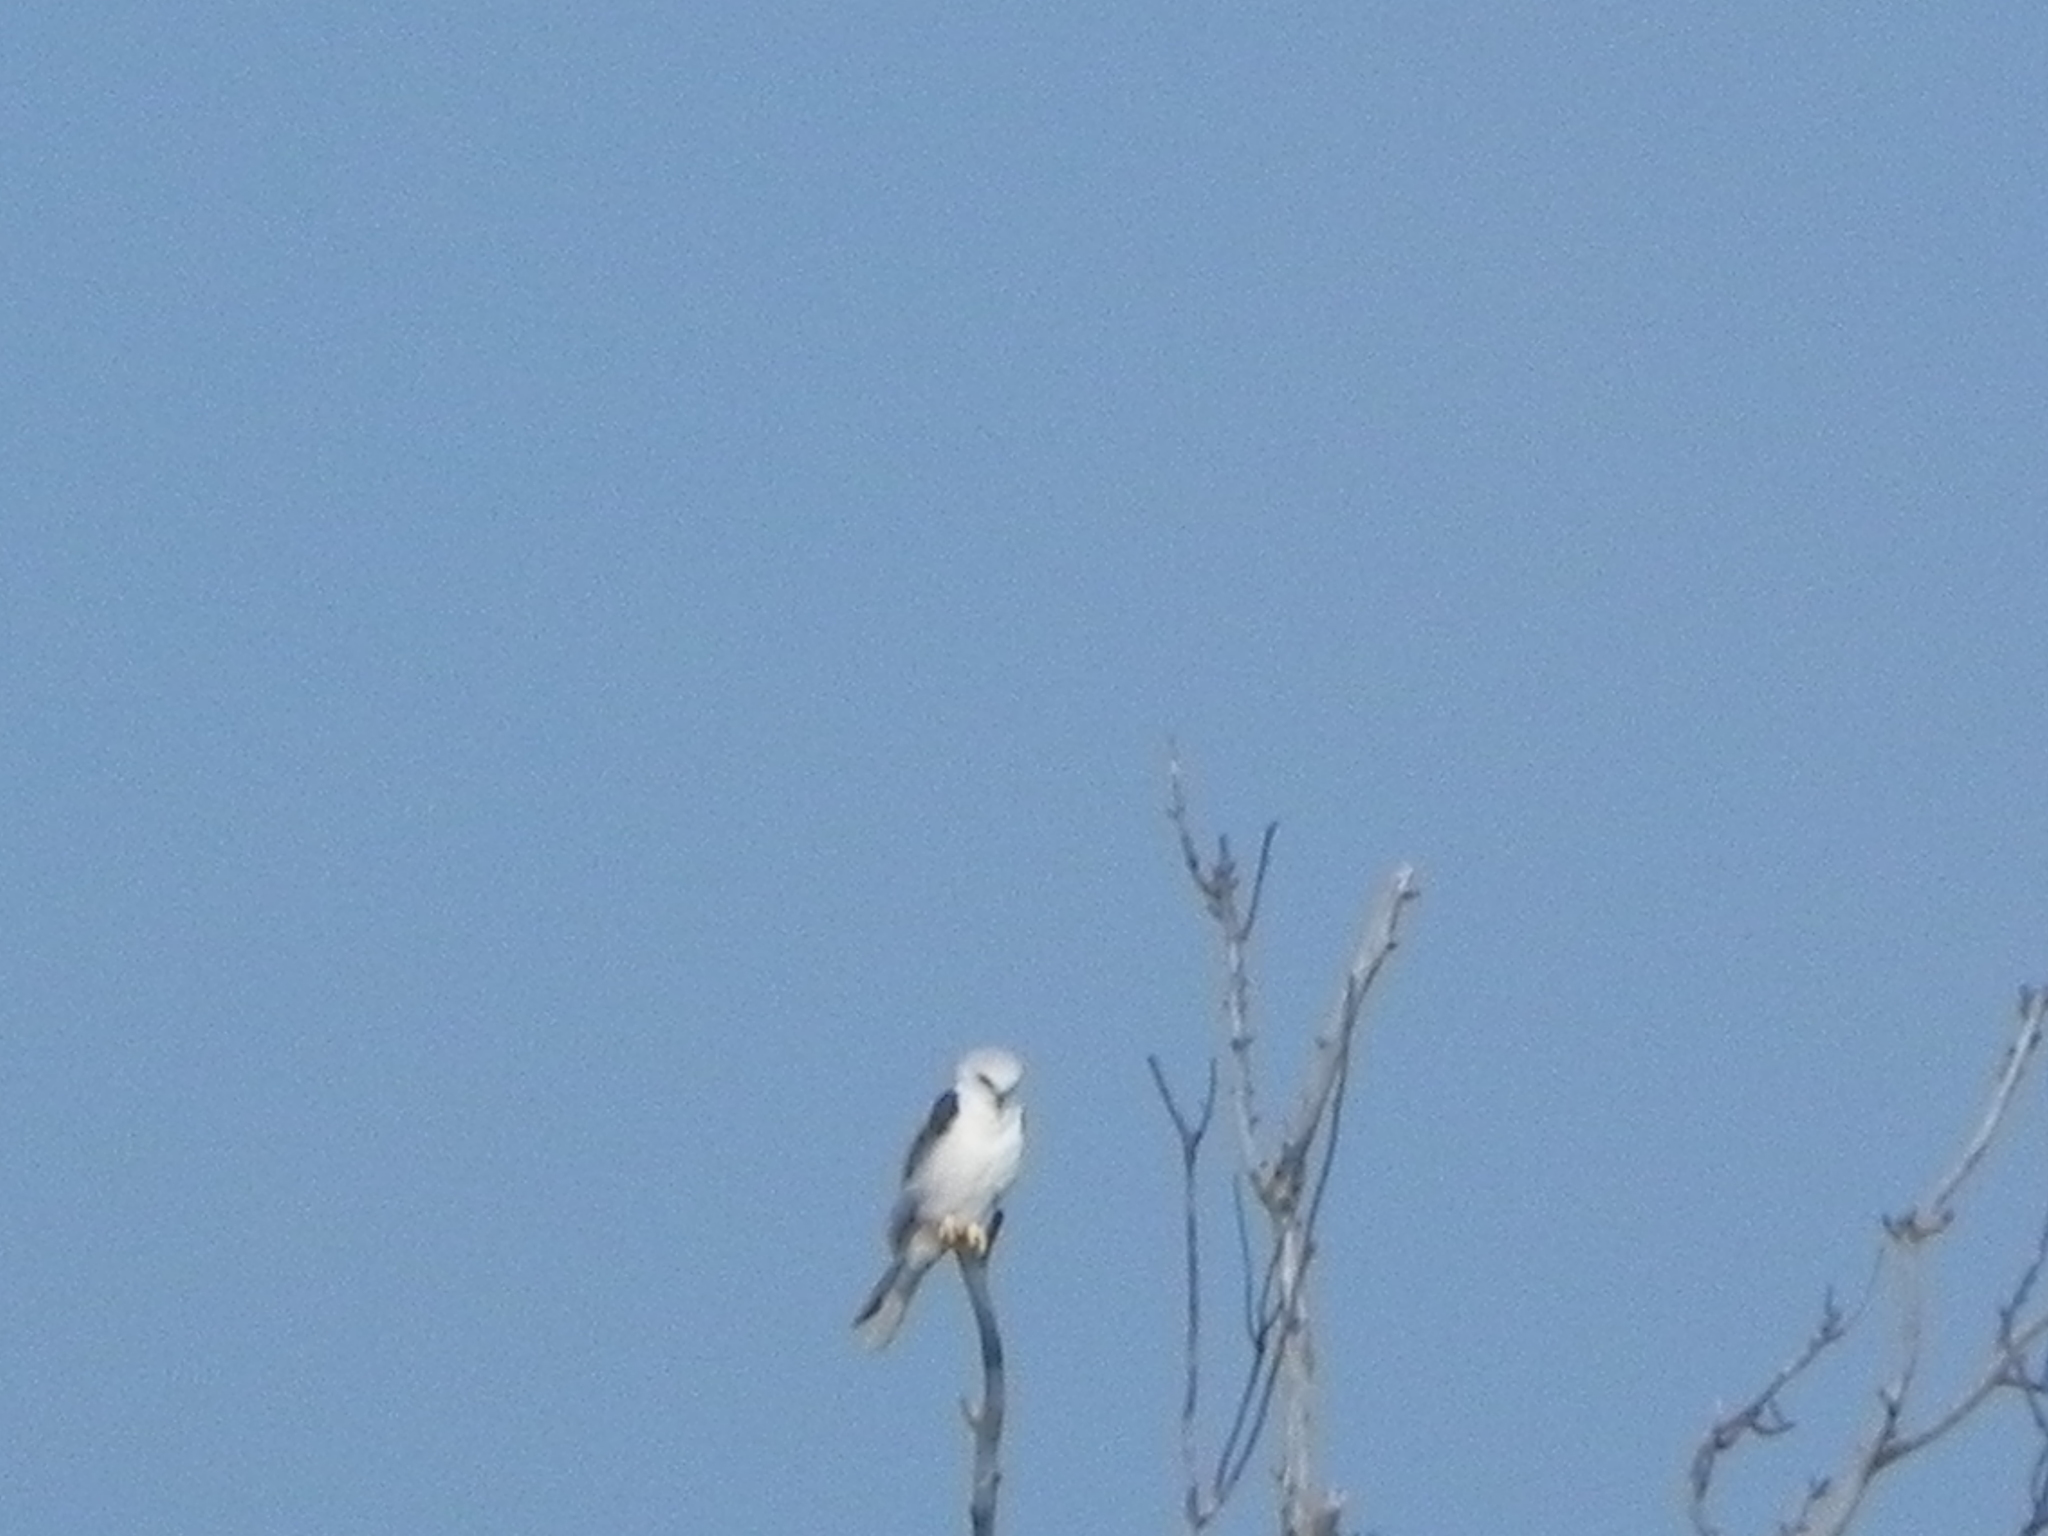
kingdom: Animalia
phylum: Chordata
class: Aves
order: Accipitriformes
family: Accipitridae
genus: Elanus
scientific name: Elanus leucurus
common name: White-tailed kite
